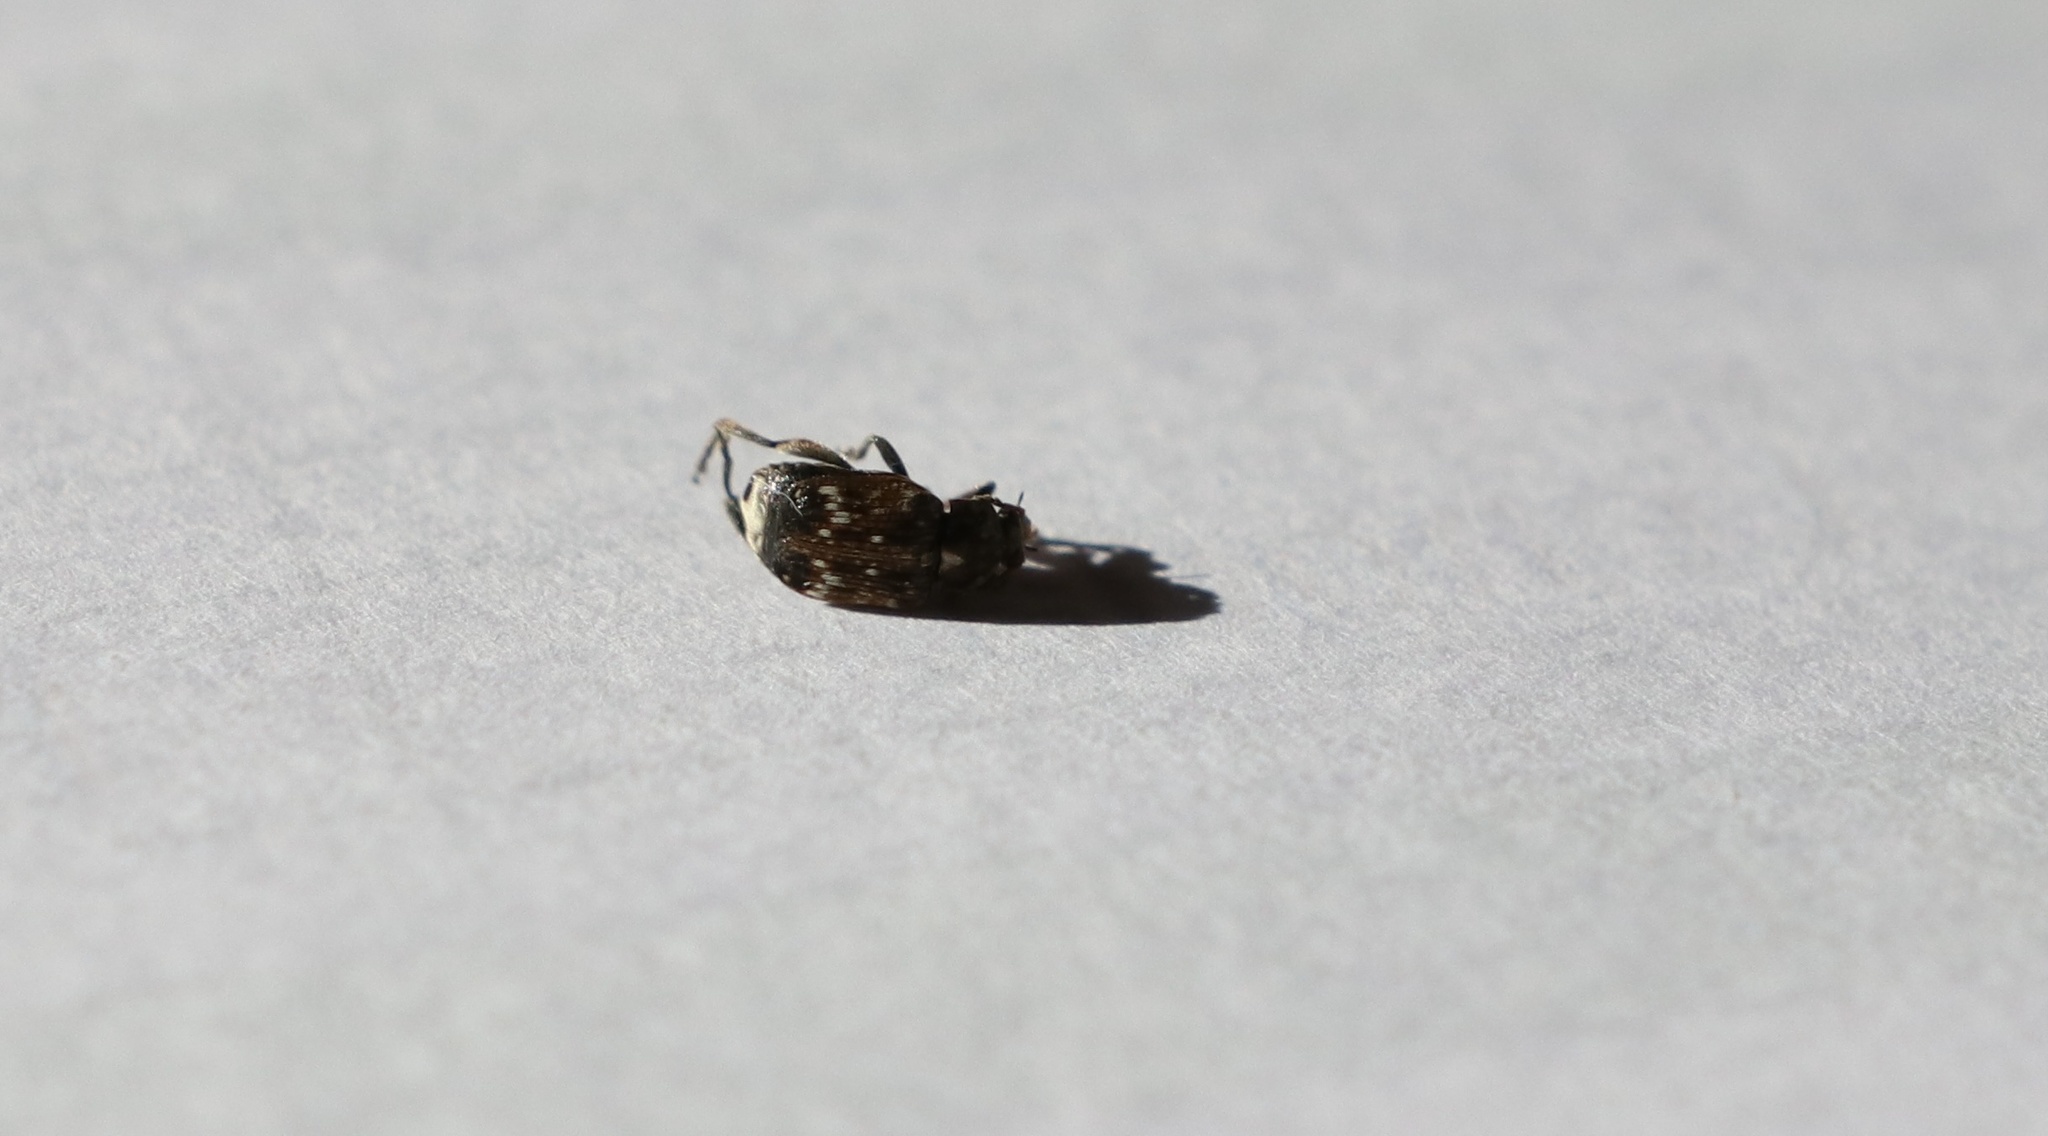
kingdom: Animalia
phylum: Arthropoda
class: Insecta
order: Coleoptera
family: Chrysomelidae
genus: Bruchus
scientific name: Bruchus pisorum
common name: Pea weevil
